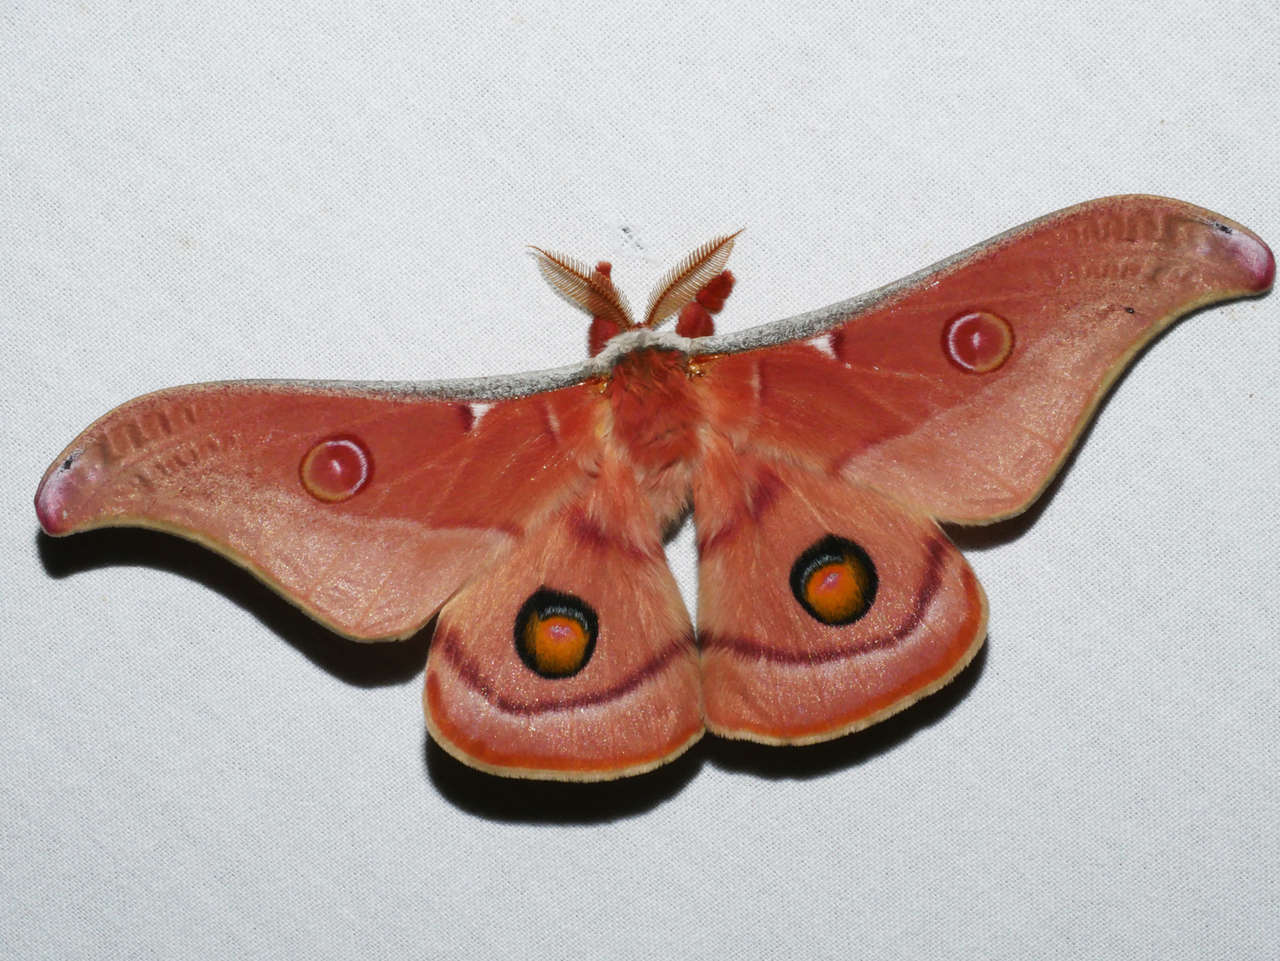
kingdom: Animalia
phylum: Arthropoda
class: Insecta
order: Lepidoptera
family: Saturniidae
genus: Opodiphthera
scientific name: Opodiphthera
